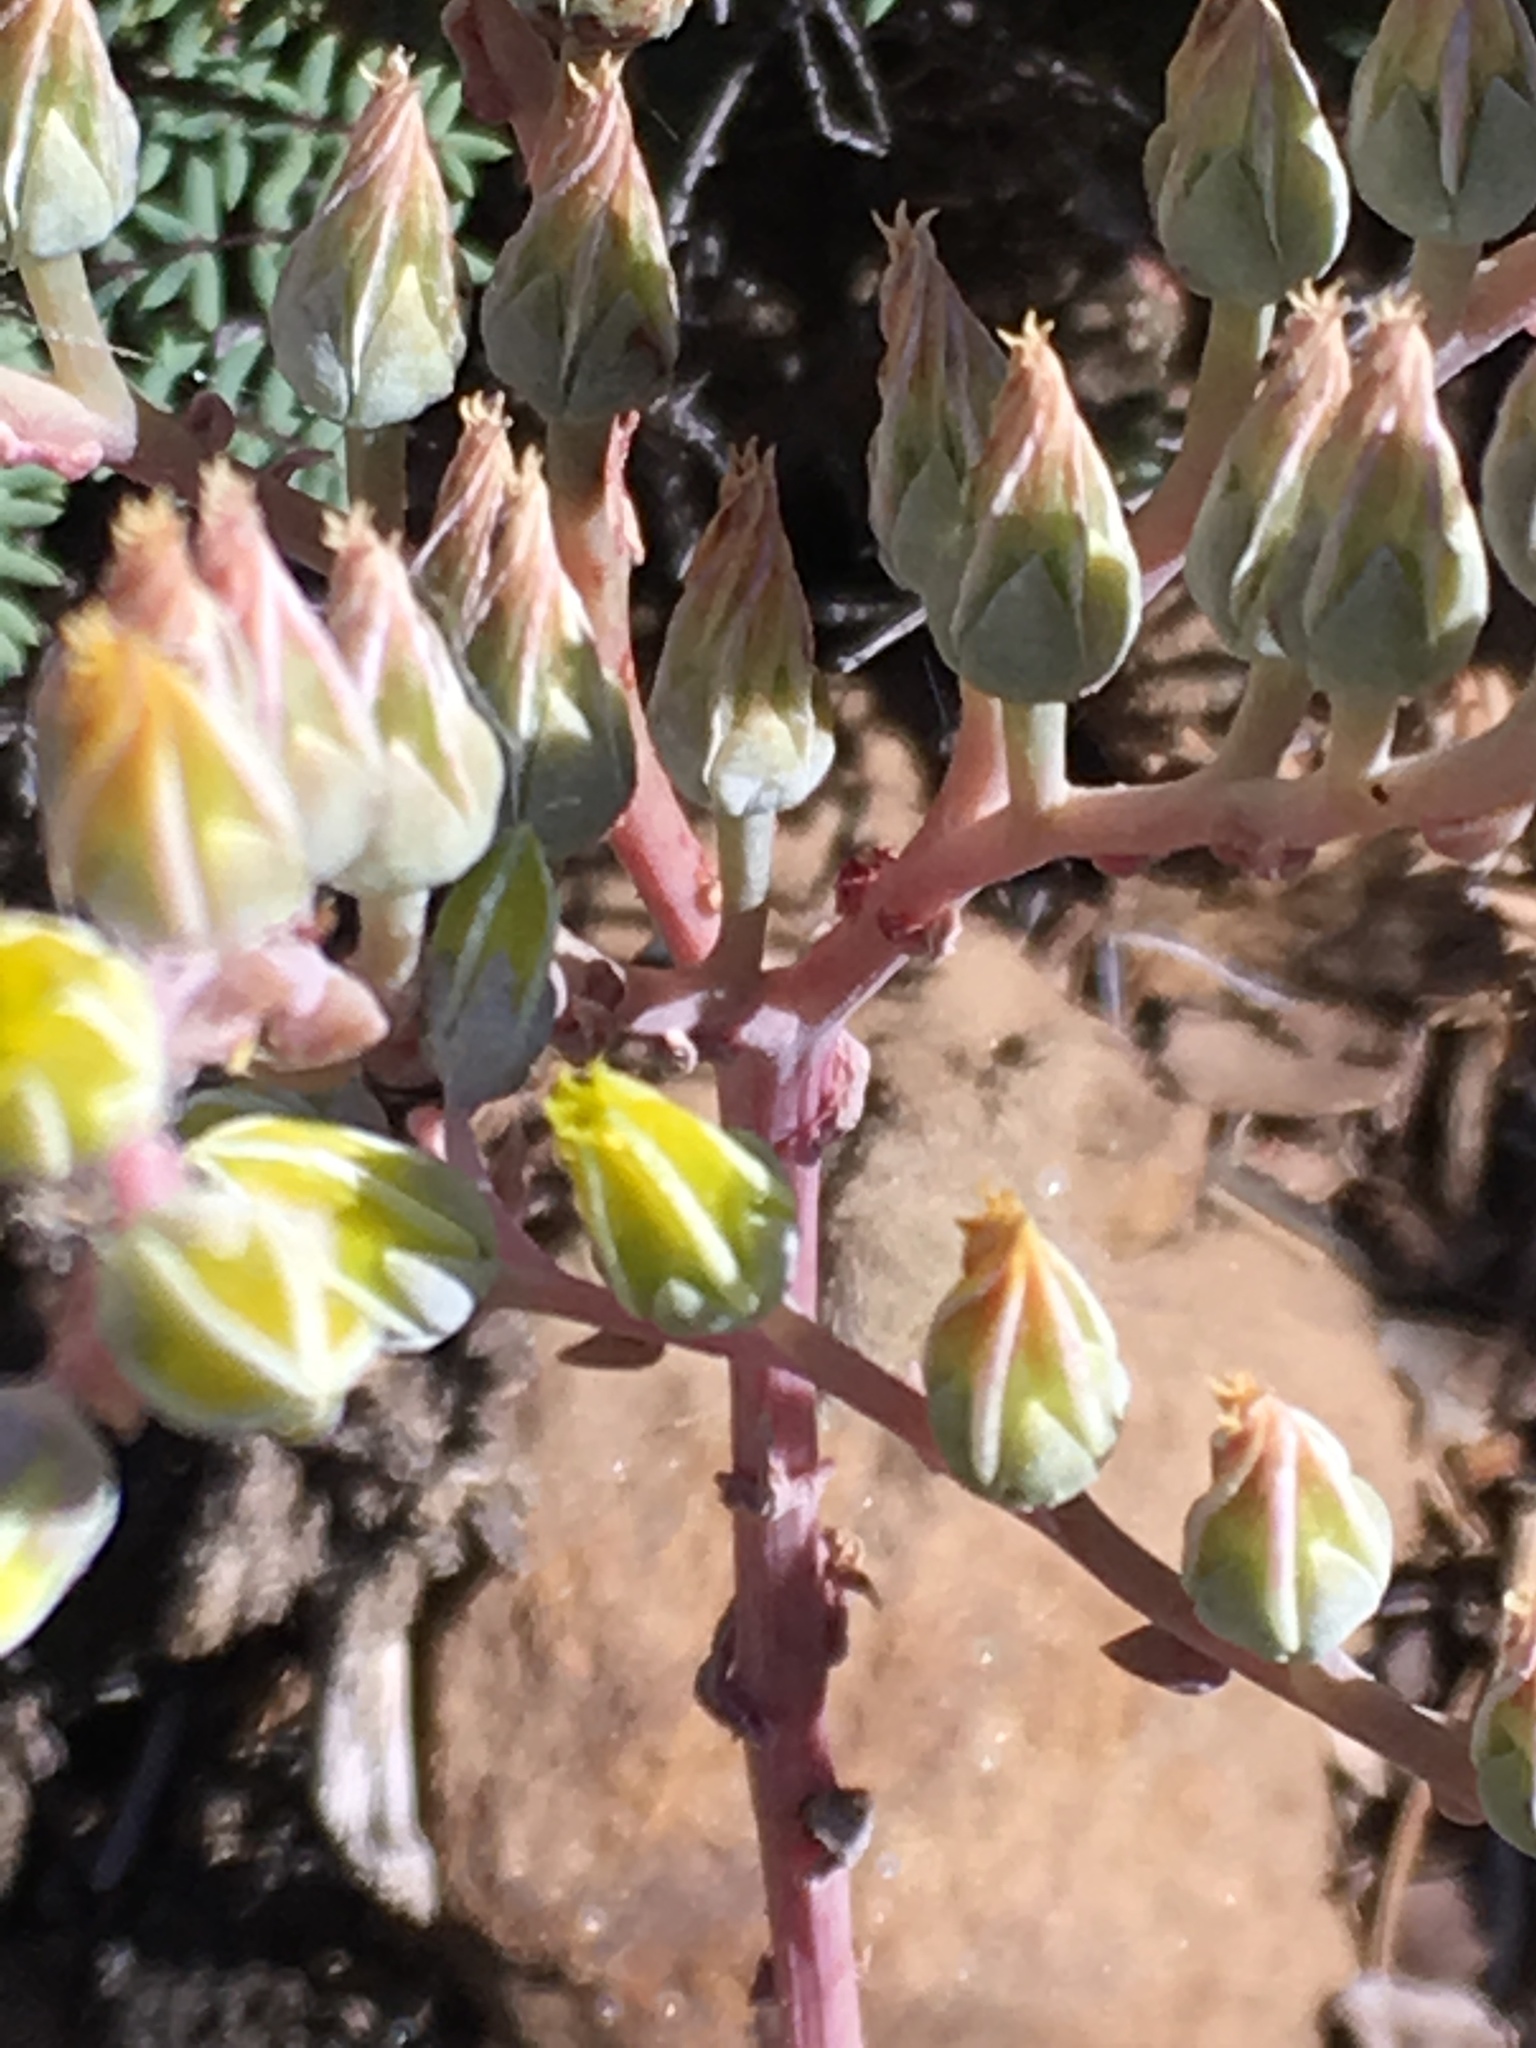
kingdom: Plantae
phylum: Tracheophyta
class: Magnoliopsida
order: Saxifragales
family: Crassulaceae
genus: Dudleya
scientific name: Dudleya saxosa
